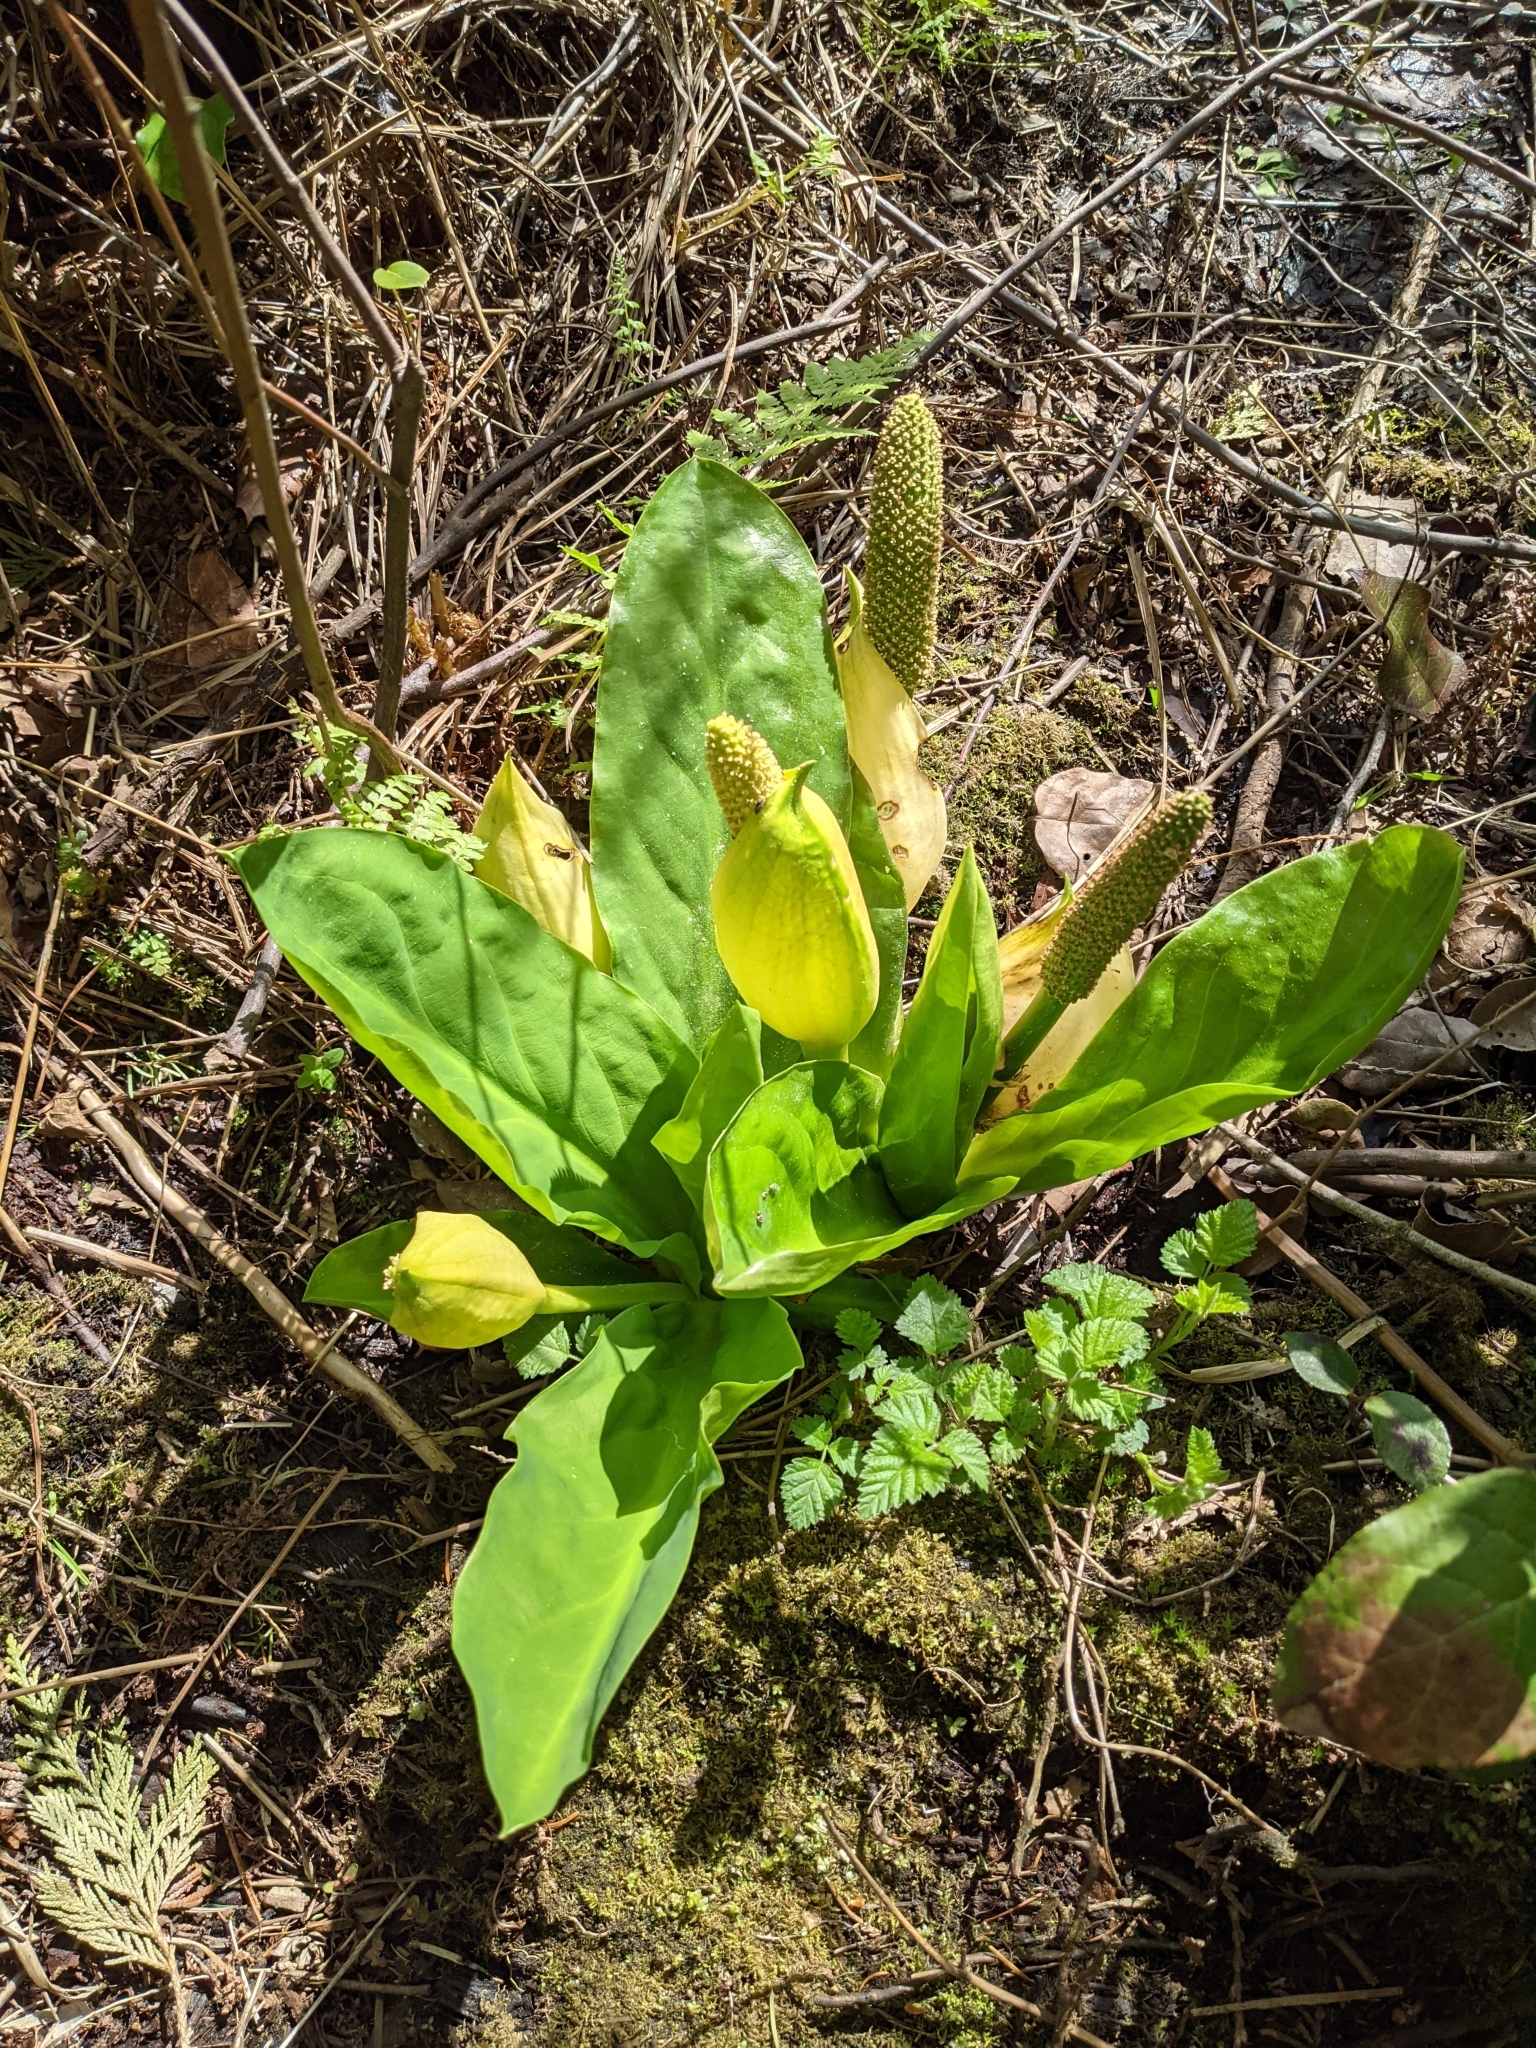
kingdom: Plantae
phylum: Tracheophyta
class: Liliopsida
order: Alismatales
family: Araceae
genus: Lysichiton
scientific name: Lysichiton americanus
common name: American skunk cabbage
